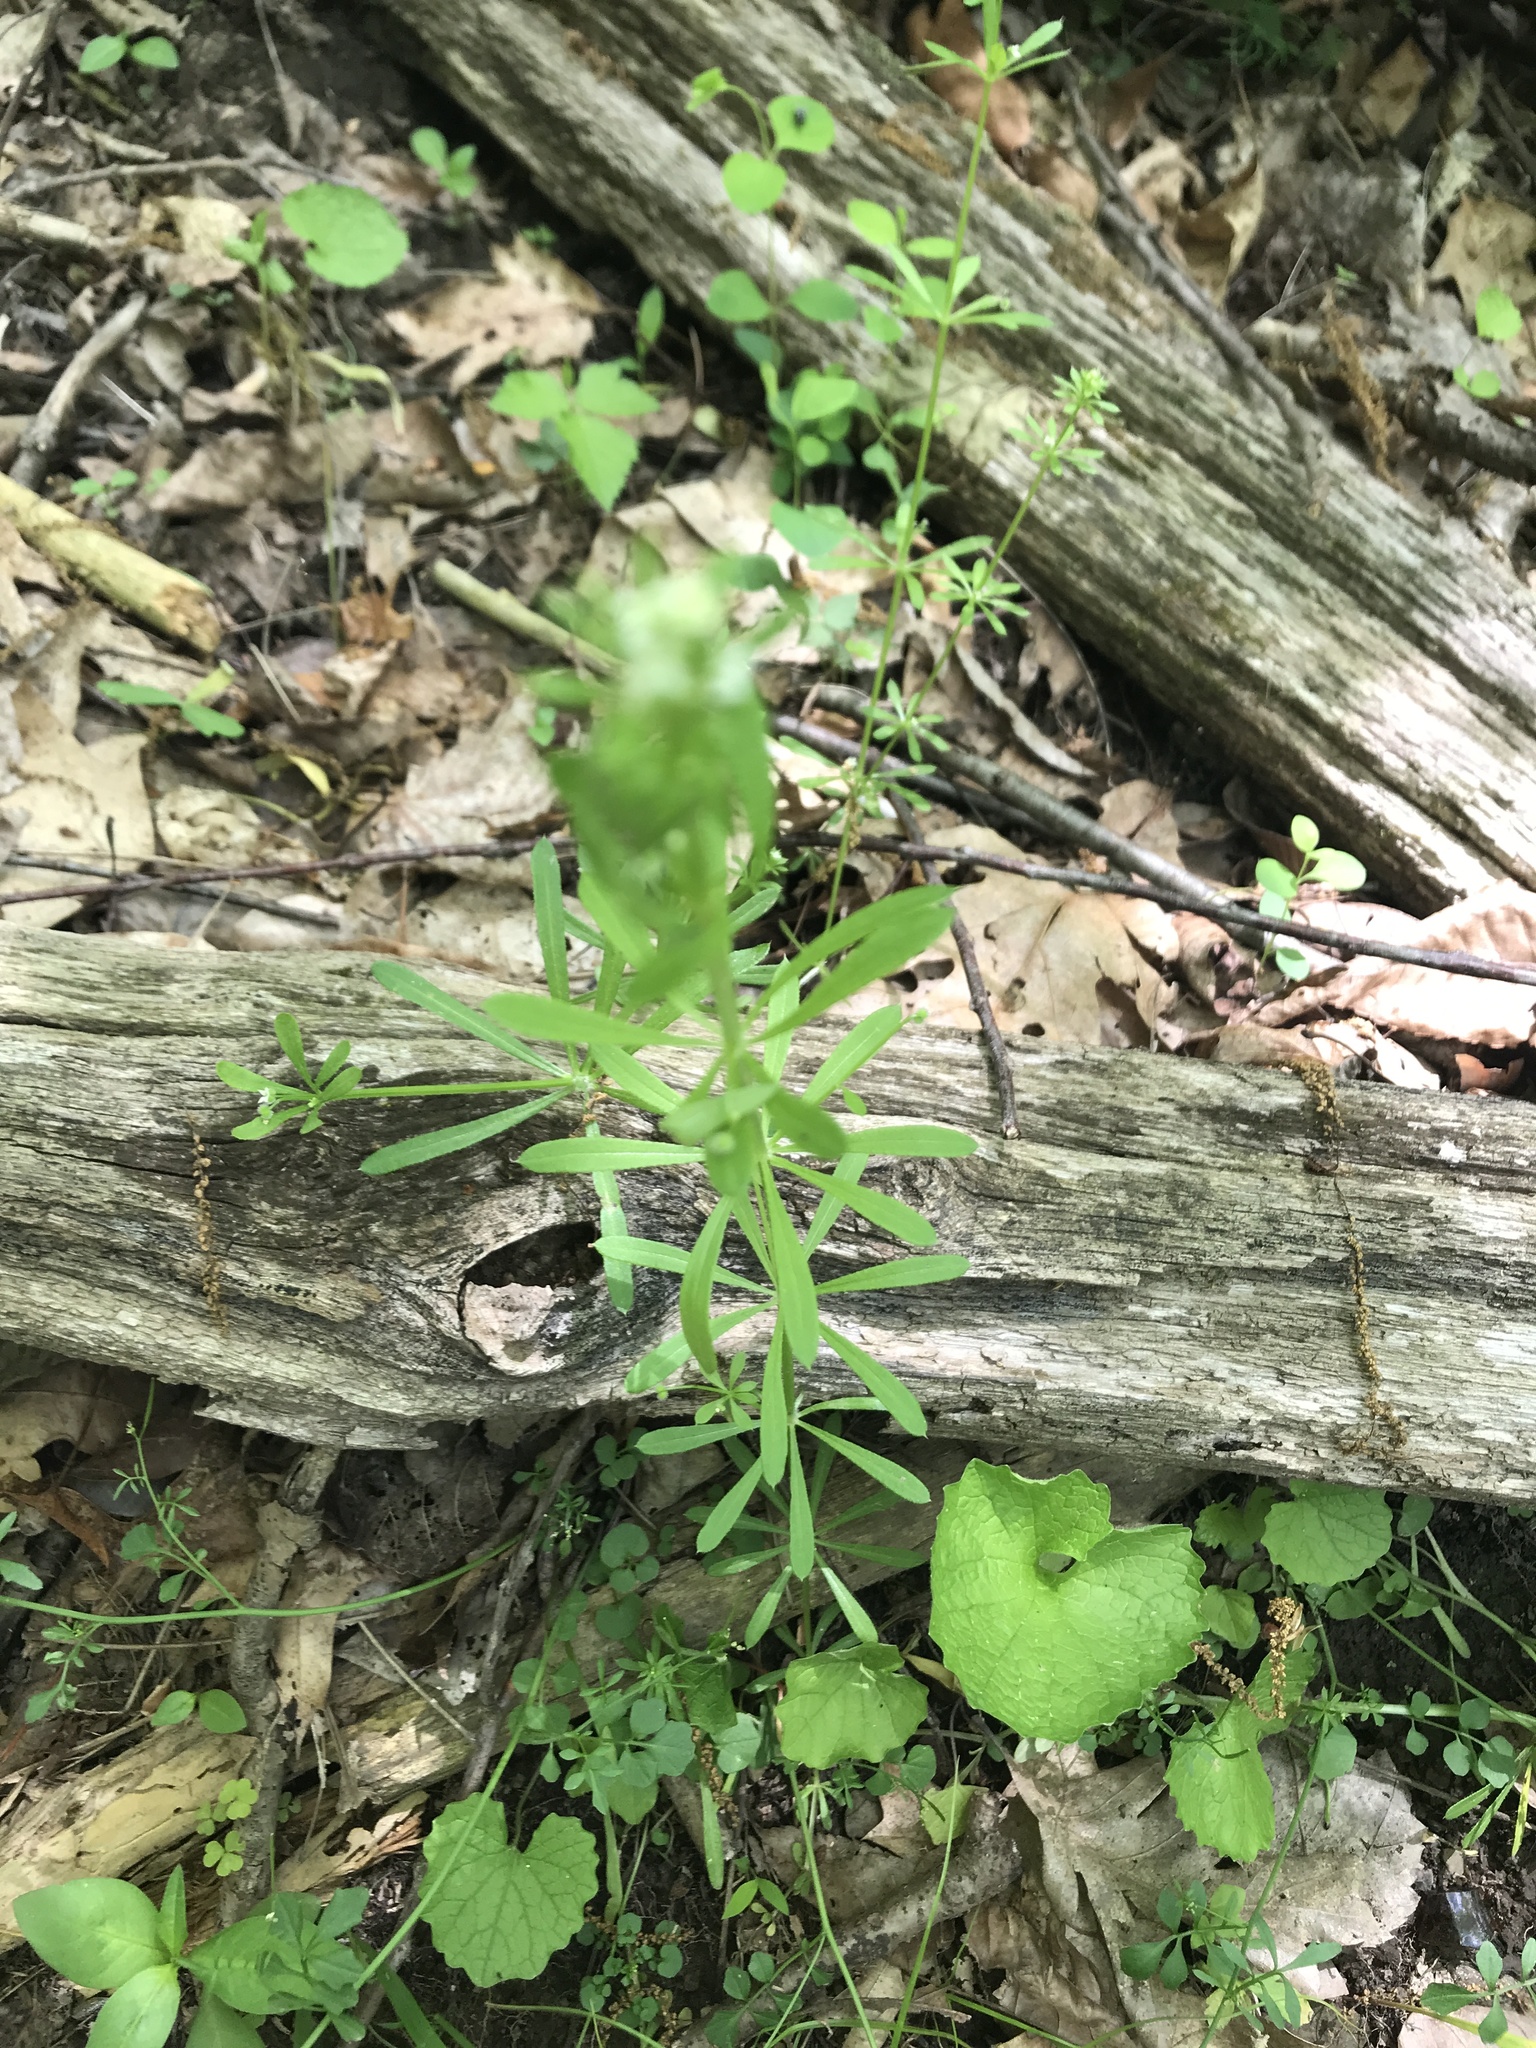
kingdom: Plantae
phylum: Tracheophyta
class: Magnoliopsida
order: Gentianales
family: Rubiaceae
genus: Galium
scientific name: Galium aparine
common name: Cleavers
